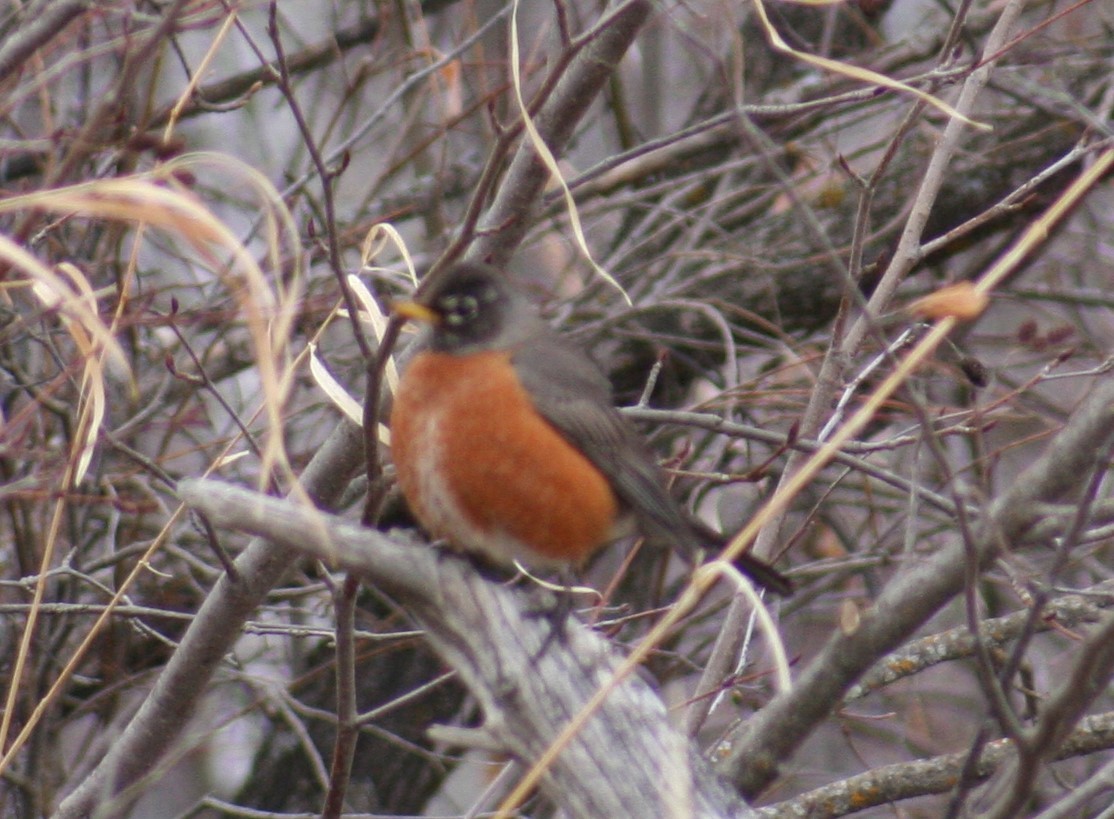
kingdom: Animalia
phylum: Chordata
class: Aves
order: Passeriformes
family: Turdidae
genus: Turdus
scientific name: Turdus migratorius
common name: American robin
